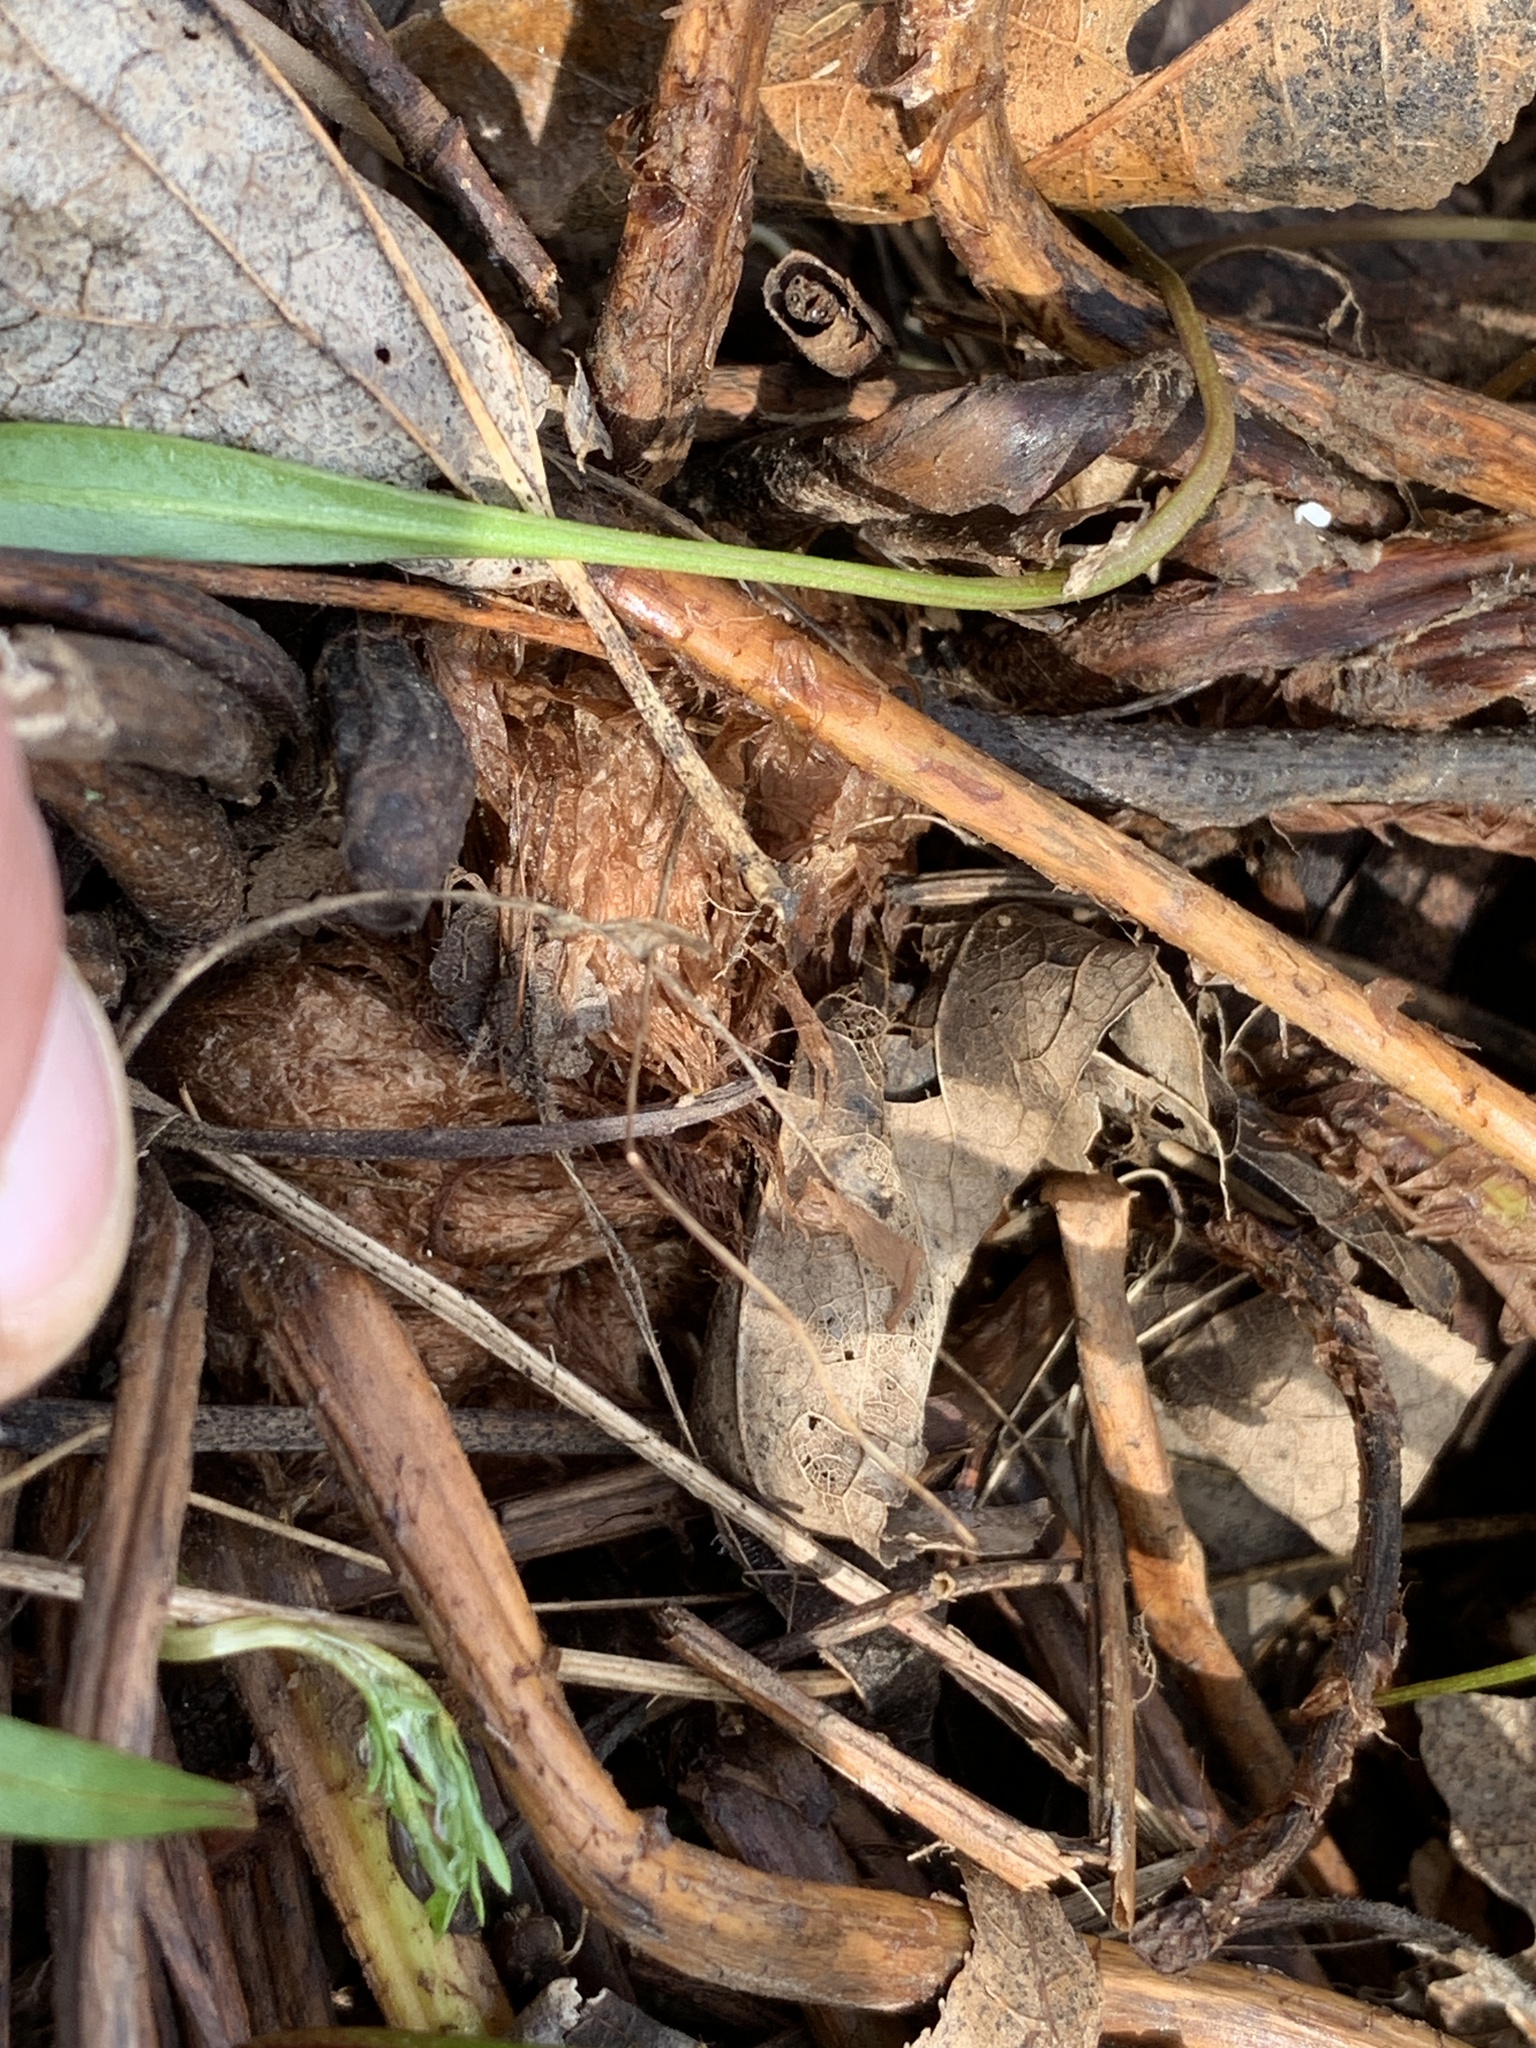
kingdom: Plantae
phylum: Tracheophyta
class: Polypodiopsida
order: Polypodiales
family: Dryopteridaceae
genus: Dryopteris
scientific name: Dryopteris marginalis
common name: Marginal wood fern
